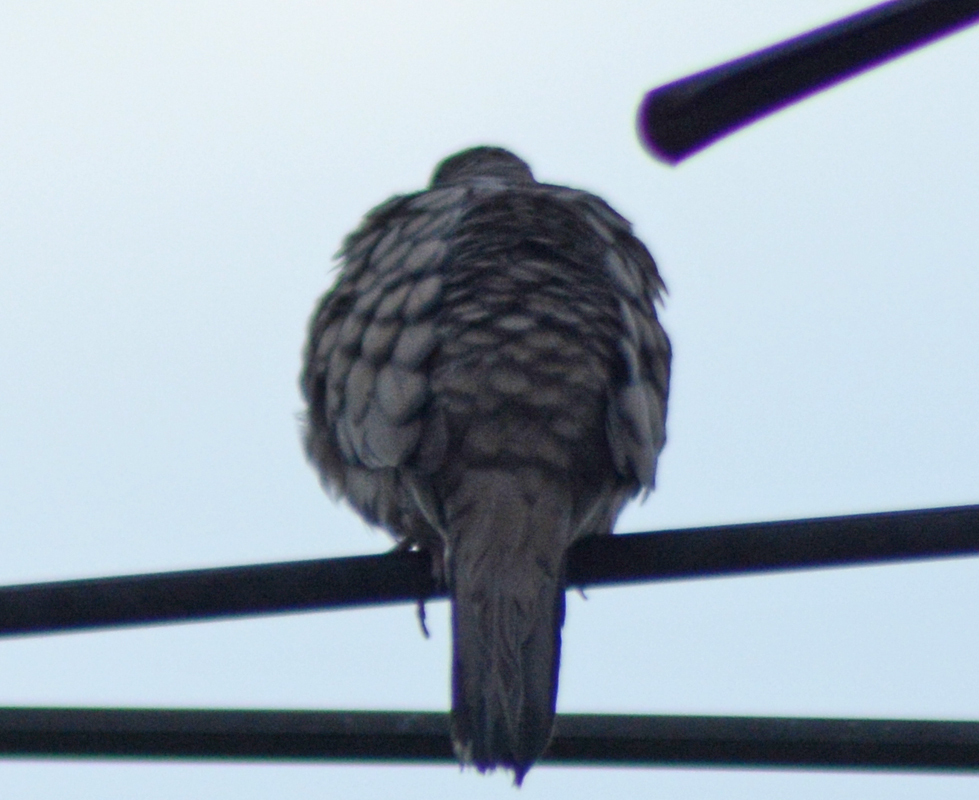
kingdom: Animalia
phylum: Chordata
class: Aves
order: Columbiformes
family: Columbidae
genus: Columbina
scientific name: Columbina inca
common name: Inca dove
